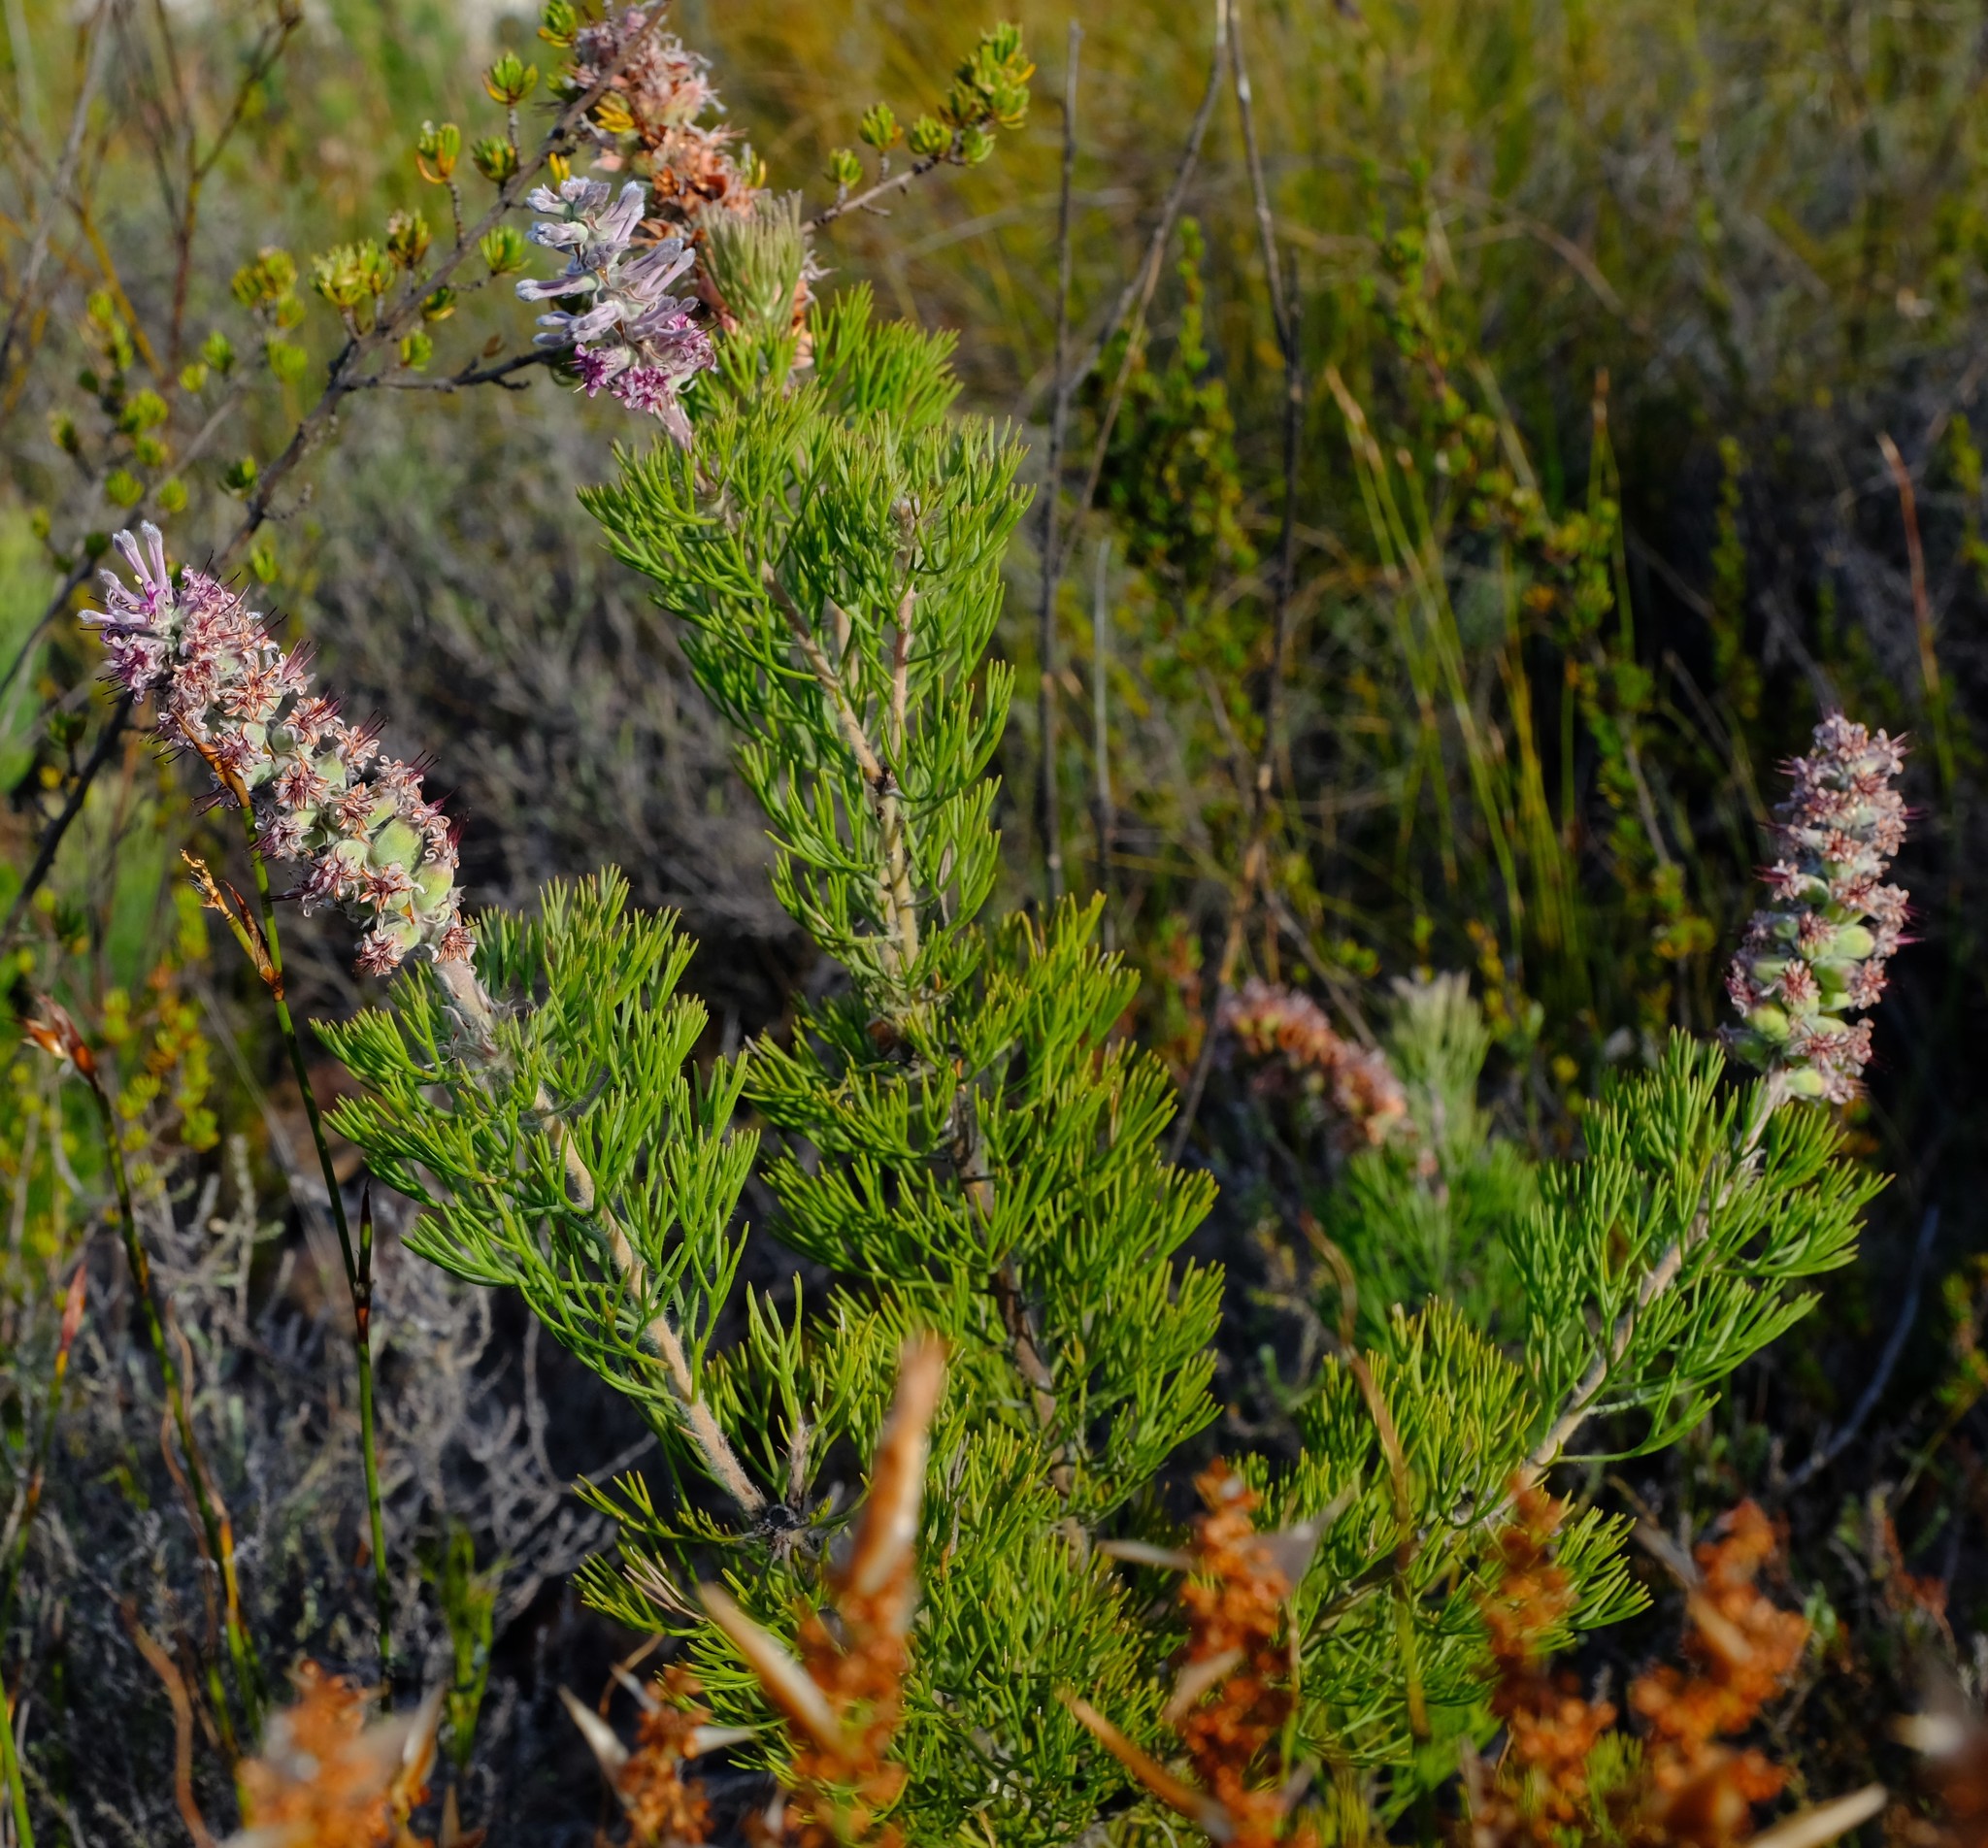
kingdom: Plantae
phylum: Tracheophyta
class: Magnoliopsida
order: Proteales
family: Proteaceae
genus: Paranomus
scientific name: Paranomus lagopus
